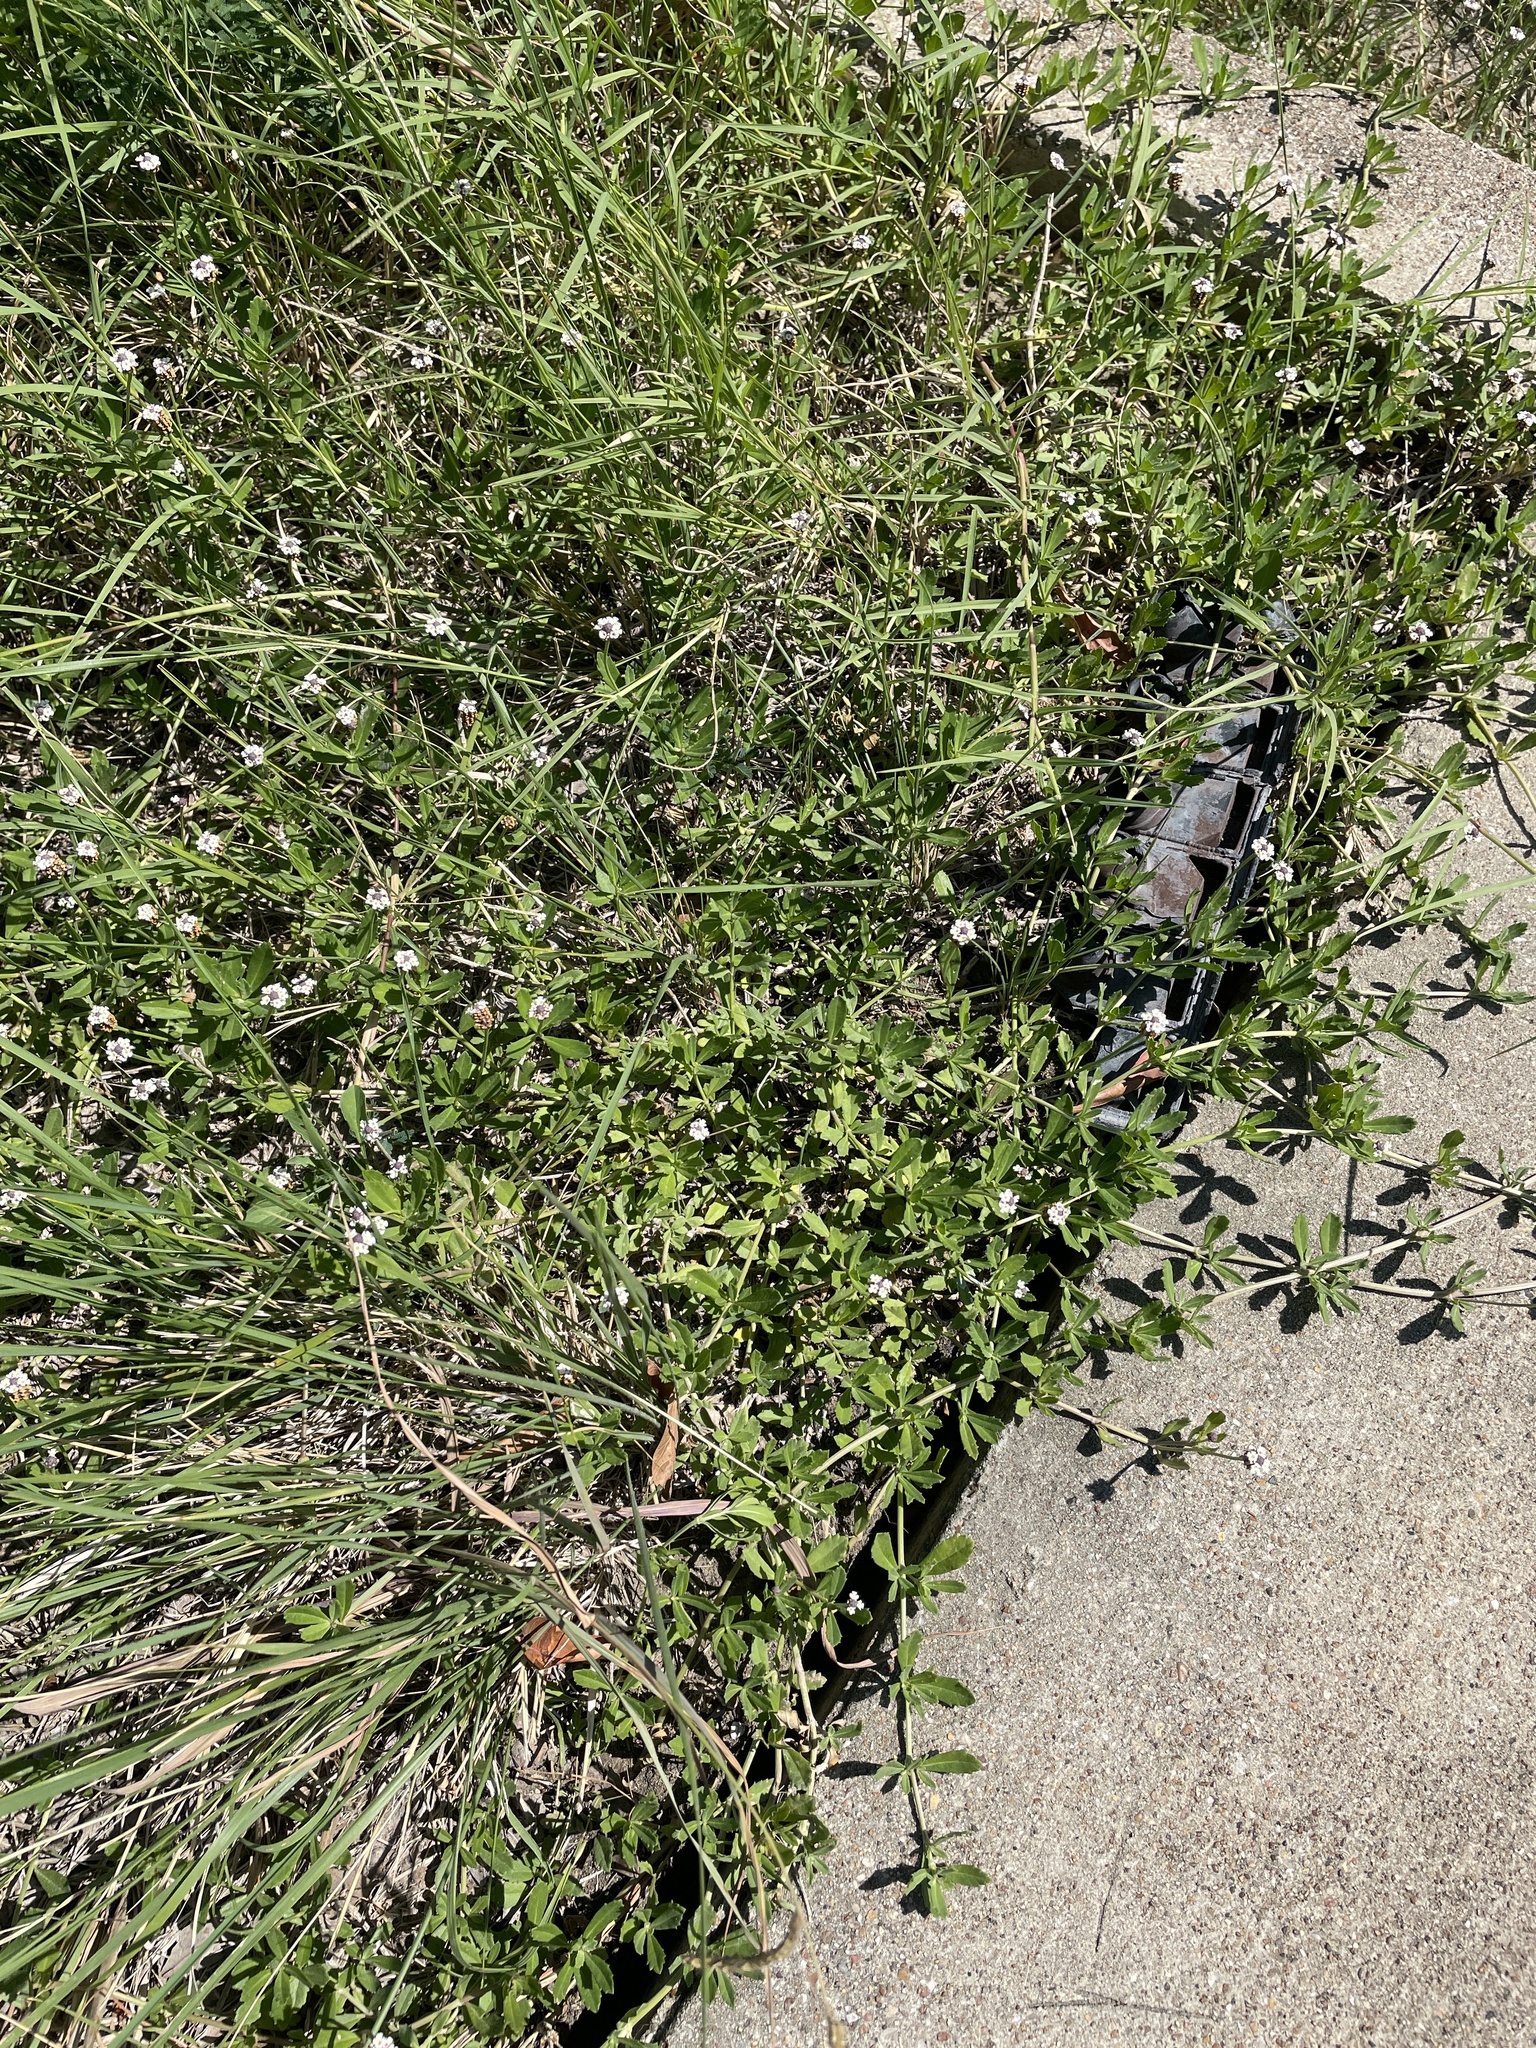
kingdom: Plantae
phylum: Tracheophyta
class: Magnoliopsida
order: Lamiales
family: Verbenaceae
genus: Phyla
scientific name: Phyla nodiflora
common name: Frogfruit
